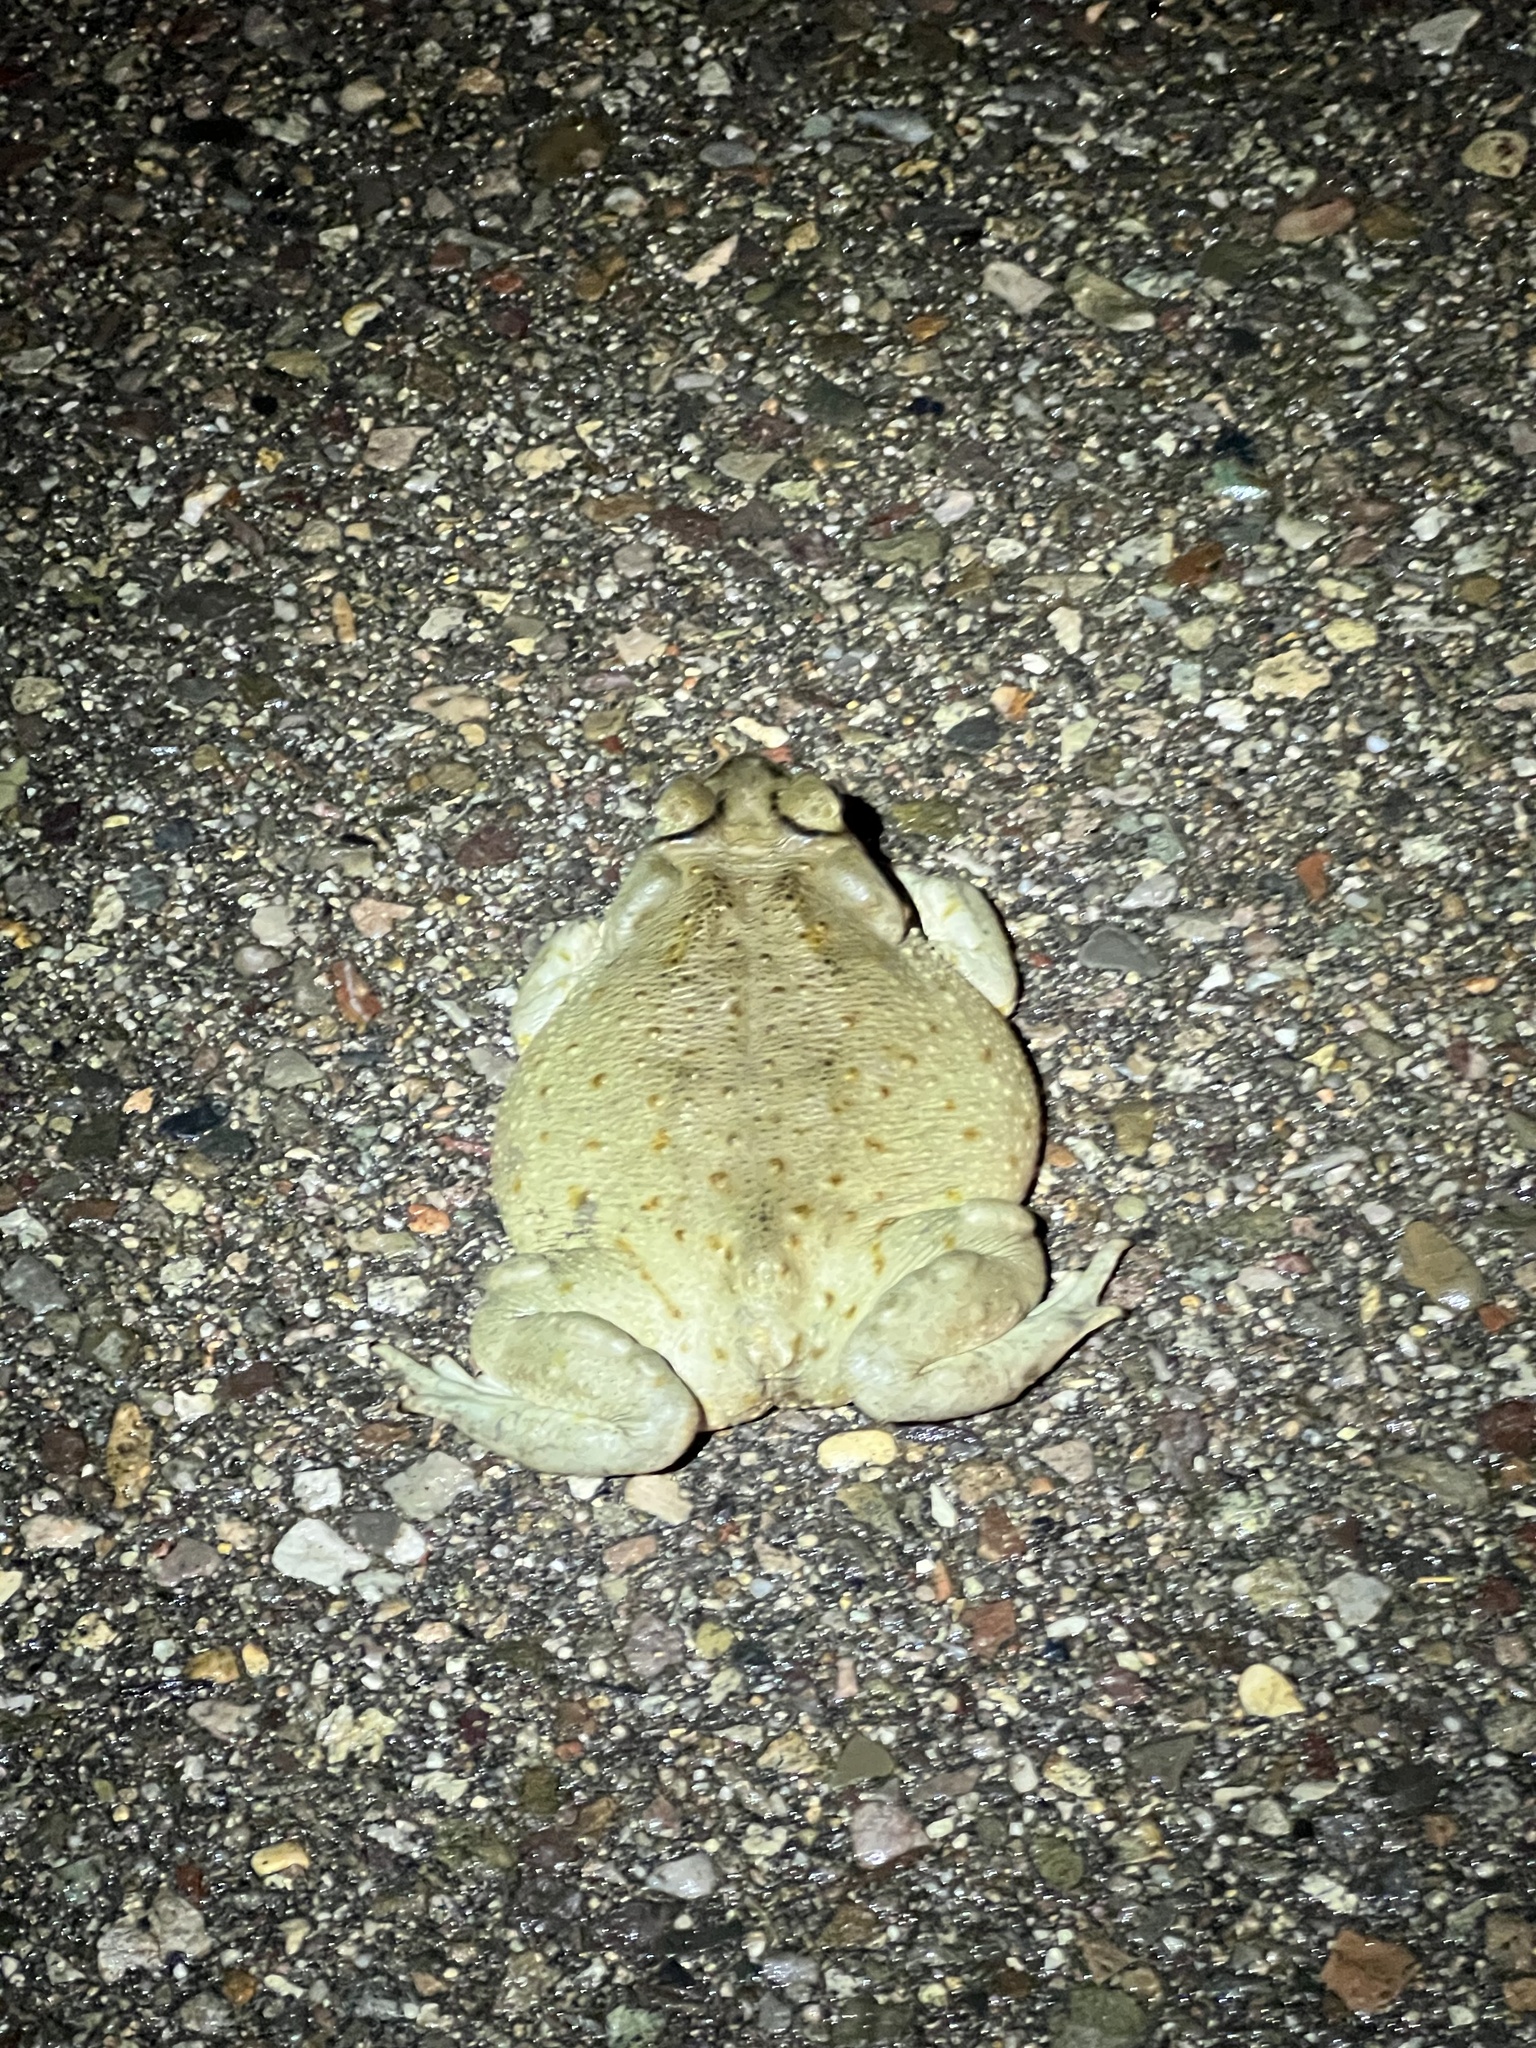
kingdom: Animalia
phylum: Chordata
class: Amphibia
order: Anura
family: Bufonidae
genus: Incilius
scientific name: Incilius alvarius
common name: Sonoran desert toad
